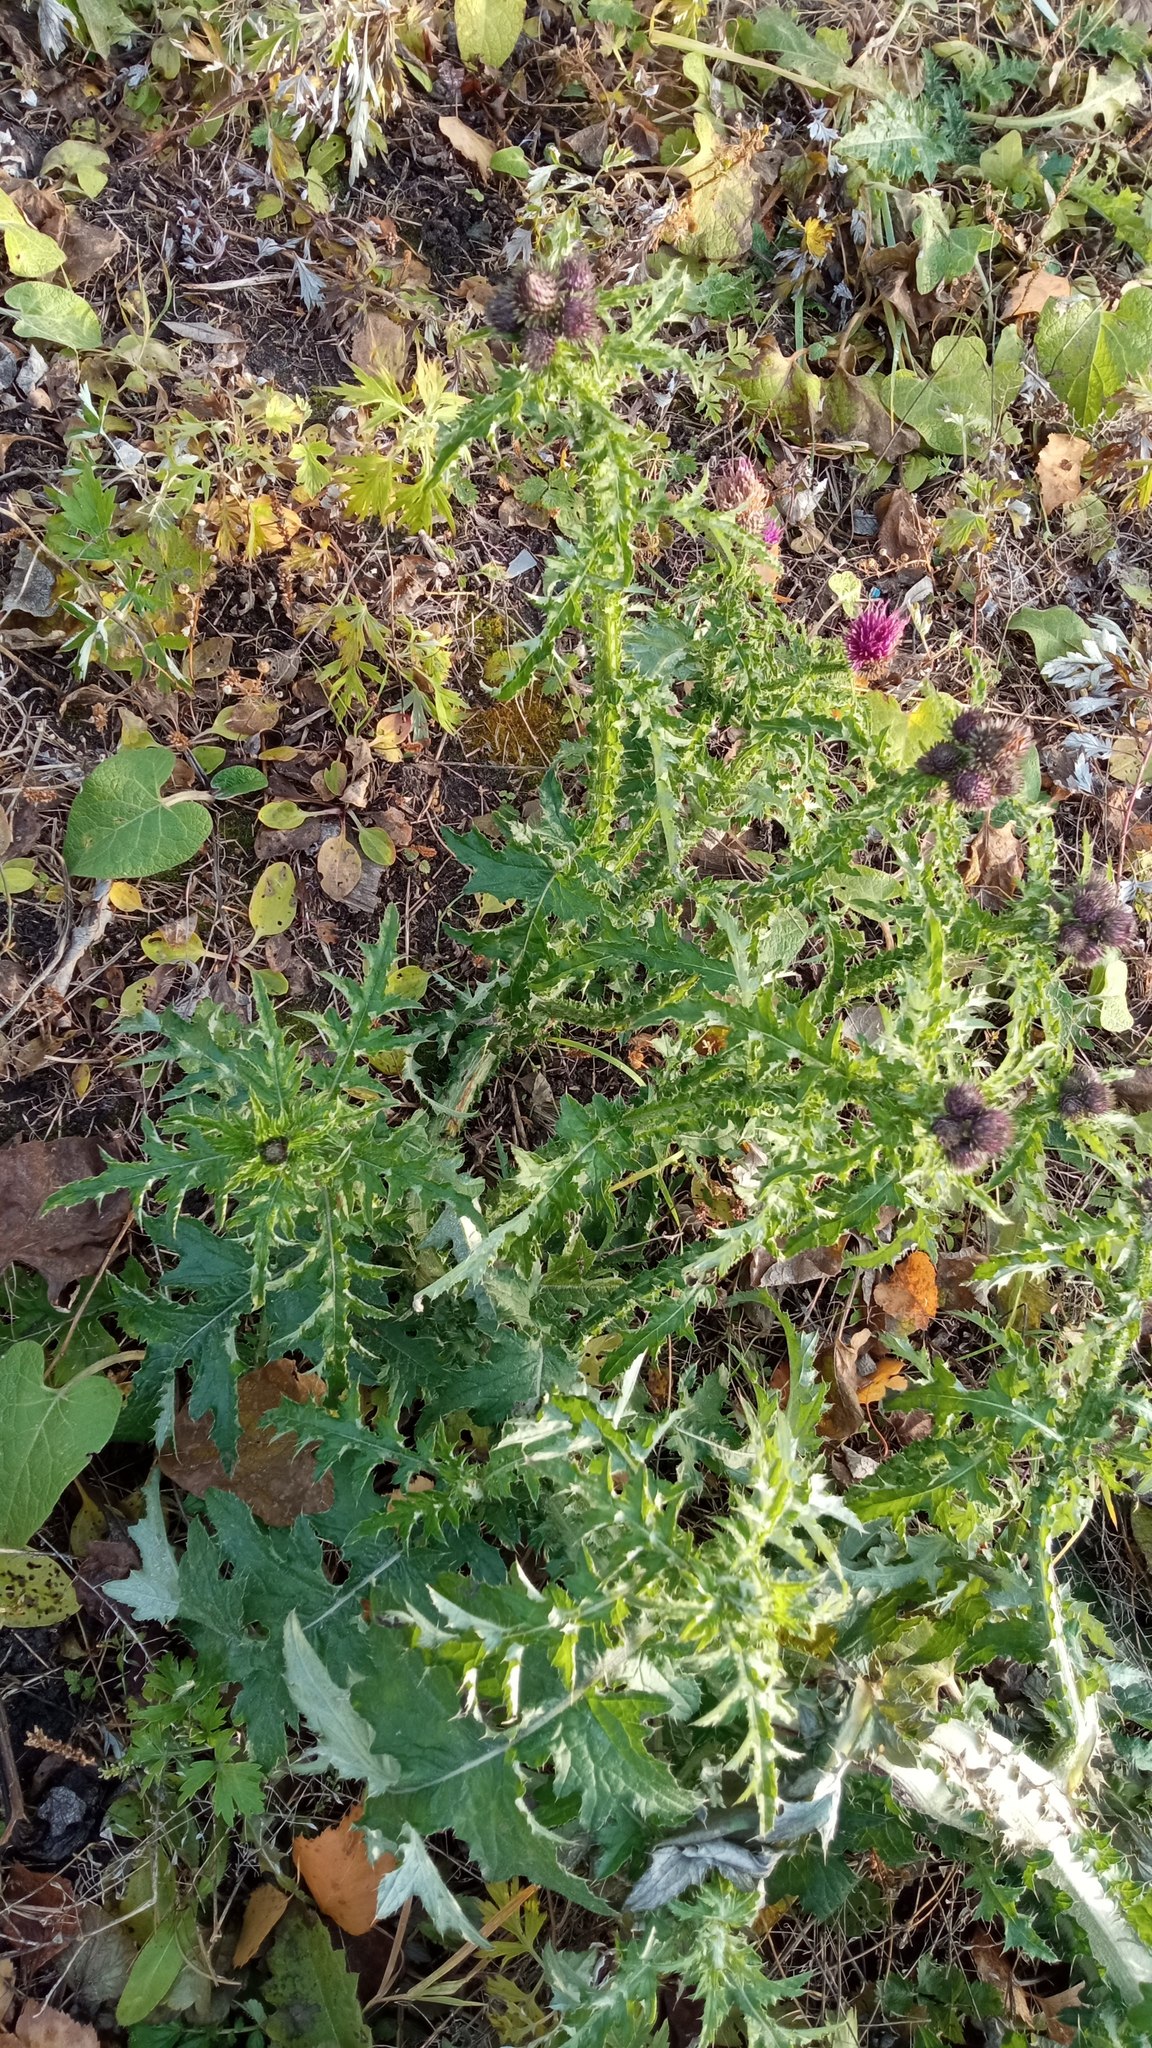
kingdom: Plantae
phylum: Tracheophyta
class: Magnoliopsida
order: Asterales
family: Asteraceae
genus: Carduus
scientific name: Carduus crispus
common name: Welted thistle
